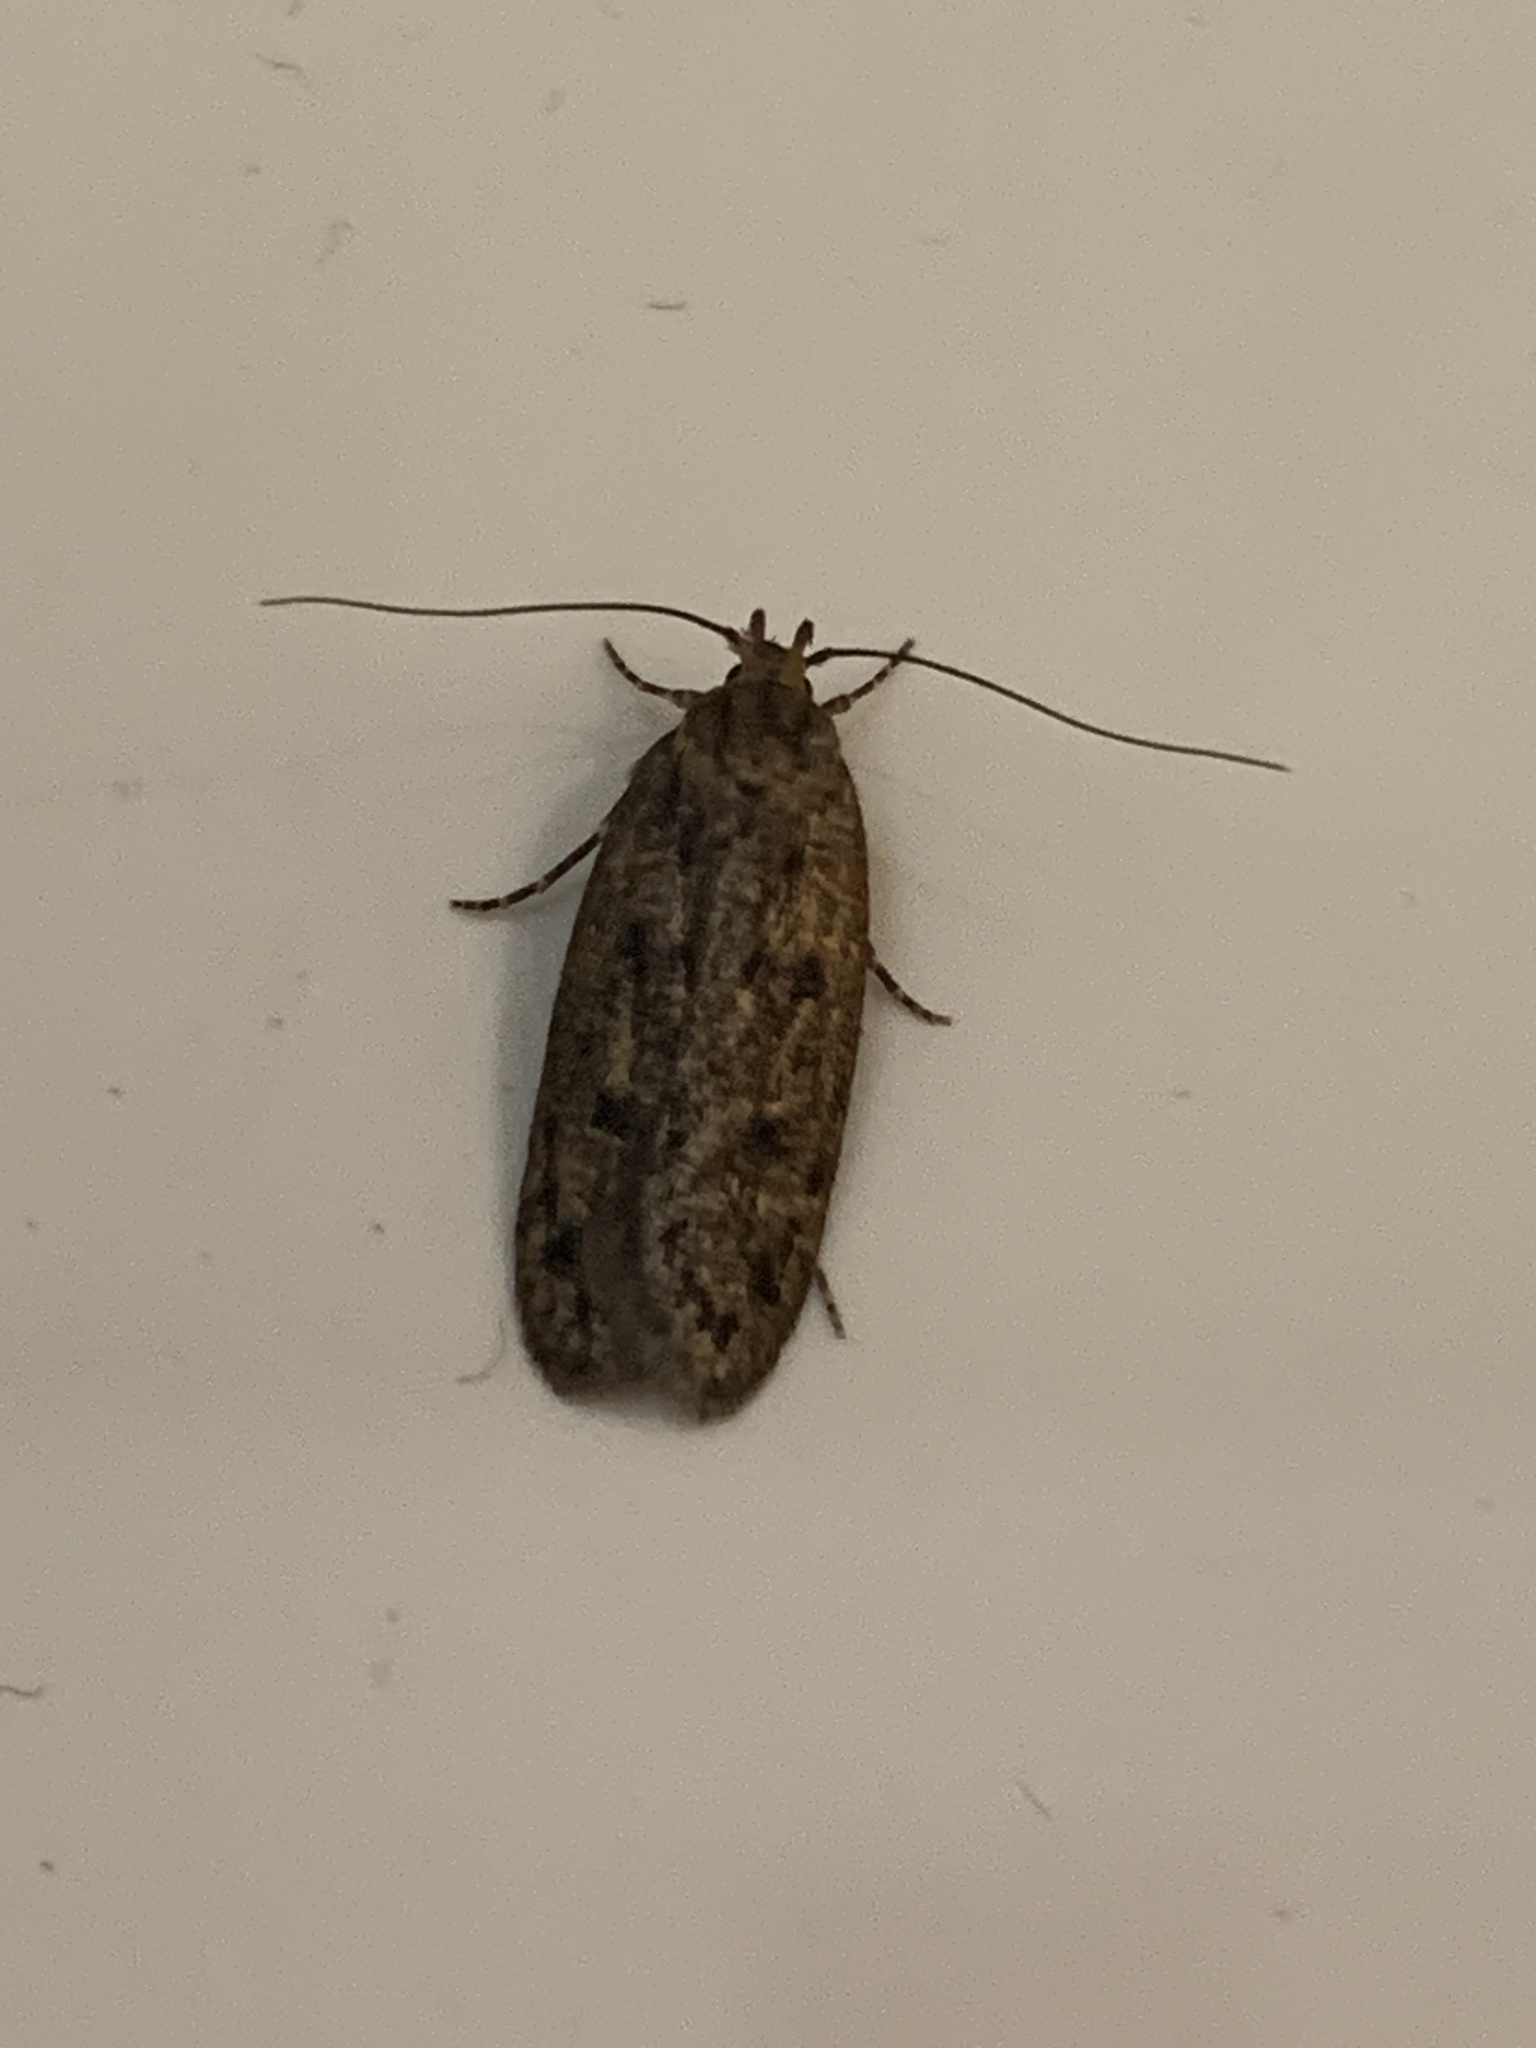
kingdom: Animalia
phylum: Arthropoda
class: Insecta
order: Lepidoptera
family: Oecophoridae
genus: Hofmannophila
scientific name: Hofmannophila pseudospretella
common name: Brown house moth
